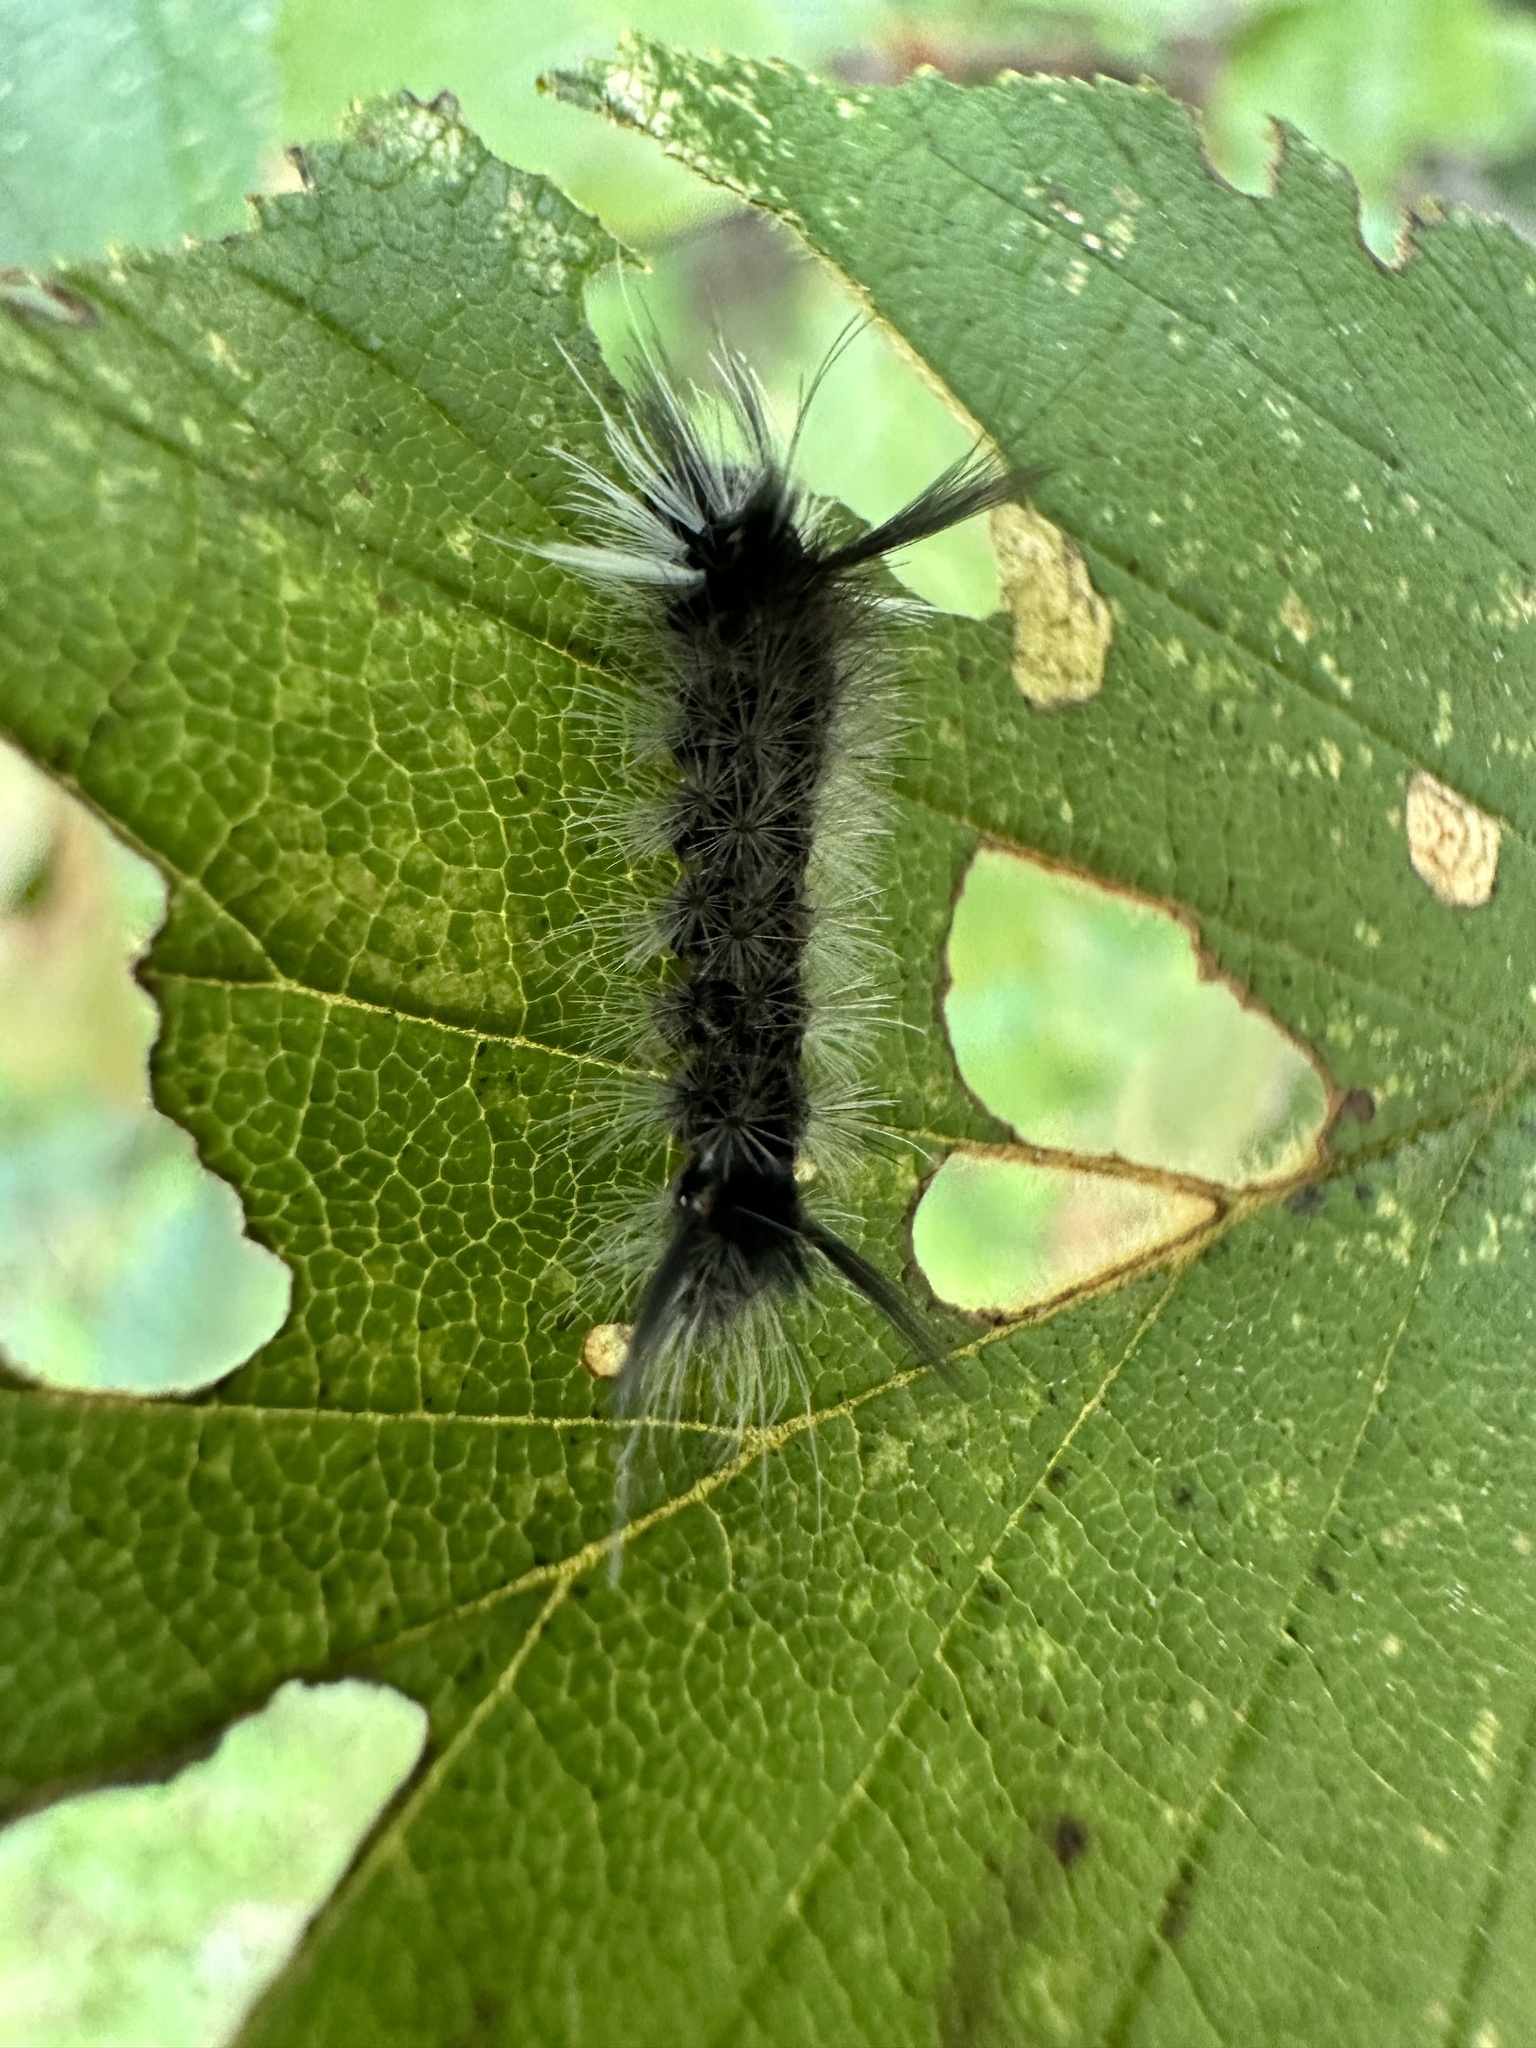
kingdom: Animalia
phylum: Arthropoda
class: Insecta
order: Lepidoptera
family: Erebidae
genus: Halysidota
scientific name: Halysidota tessellaris
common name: Banded tussock moth
